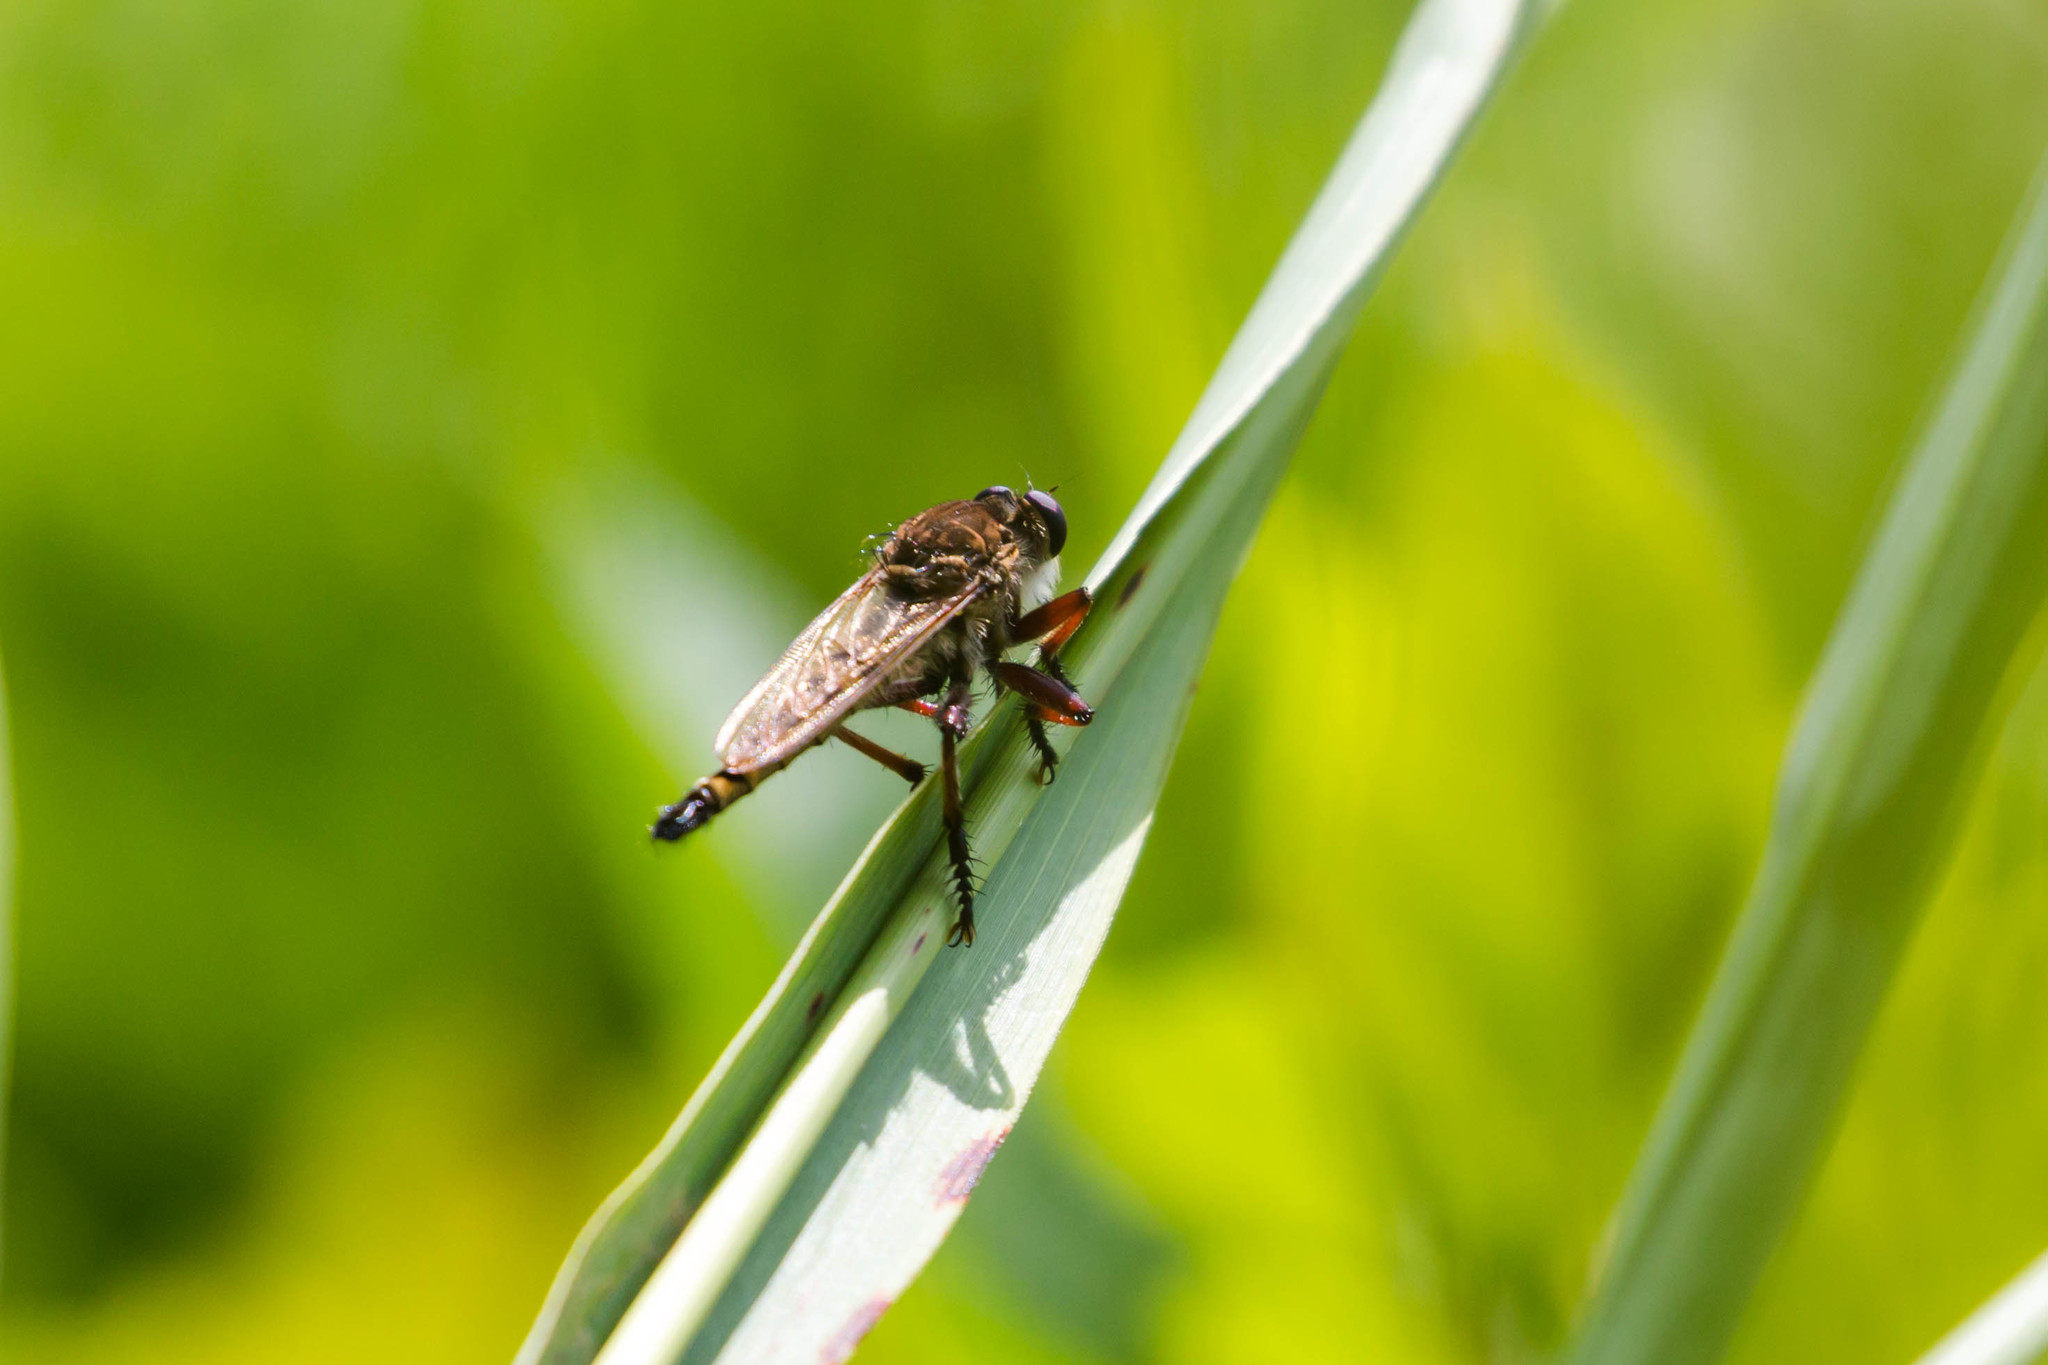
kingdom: Animalia
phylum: Arthropoda
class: Insecta
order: Diptera
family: Asilidae
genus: Promachus
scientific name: Promachus hinei
